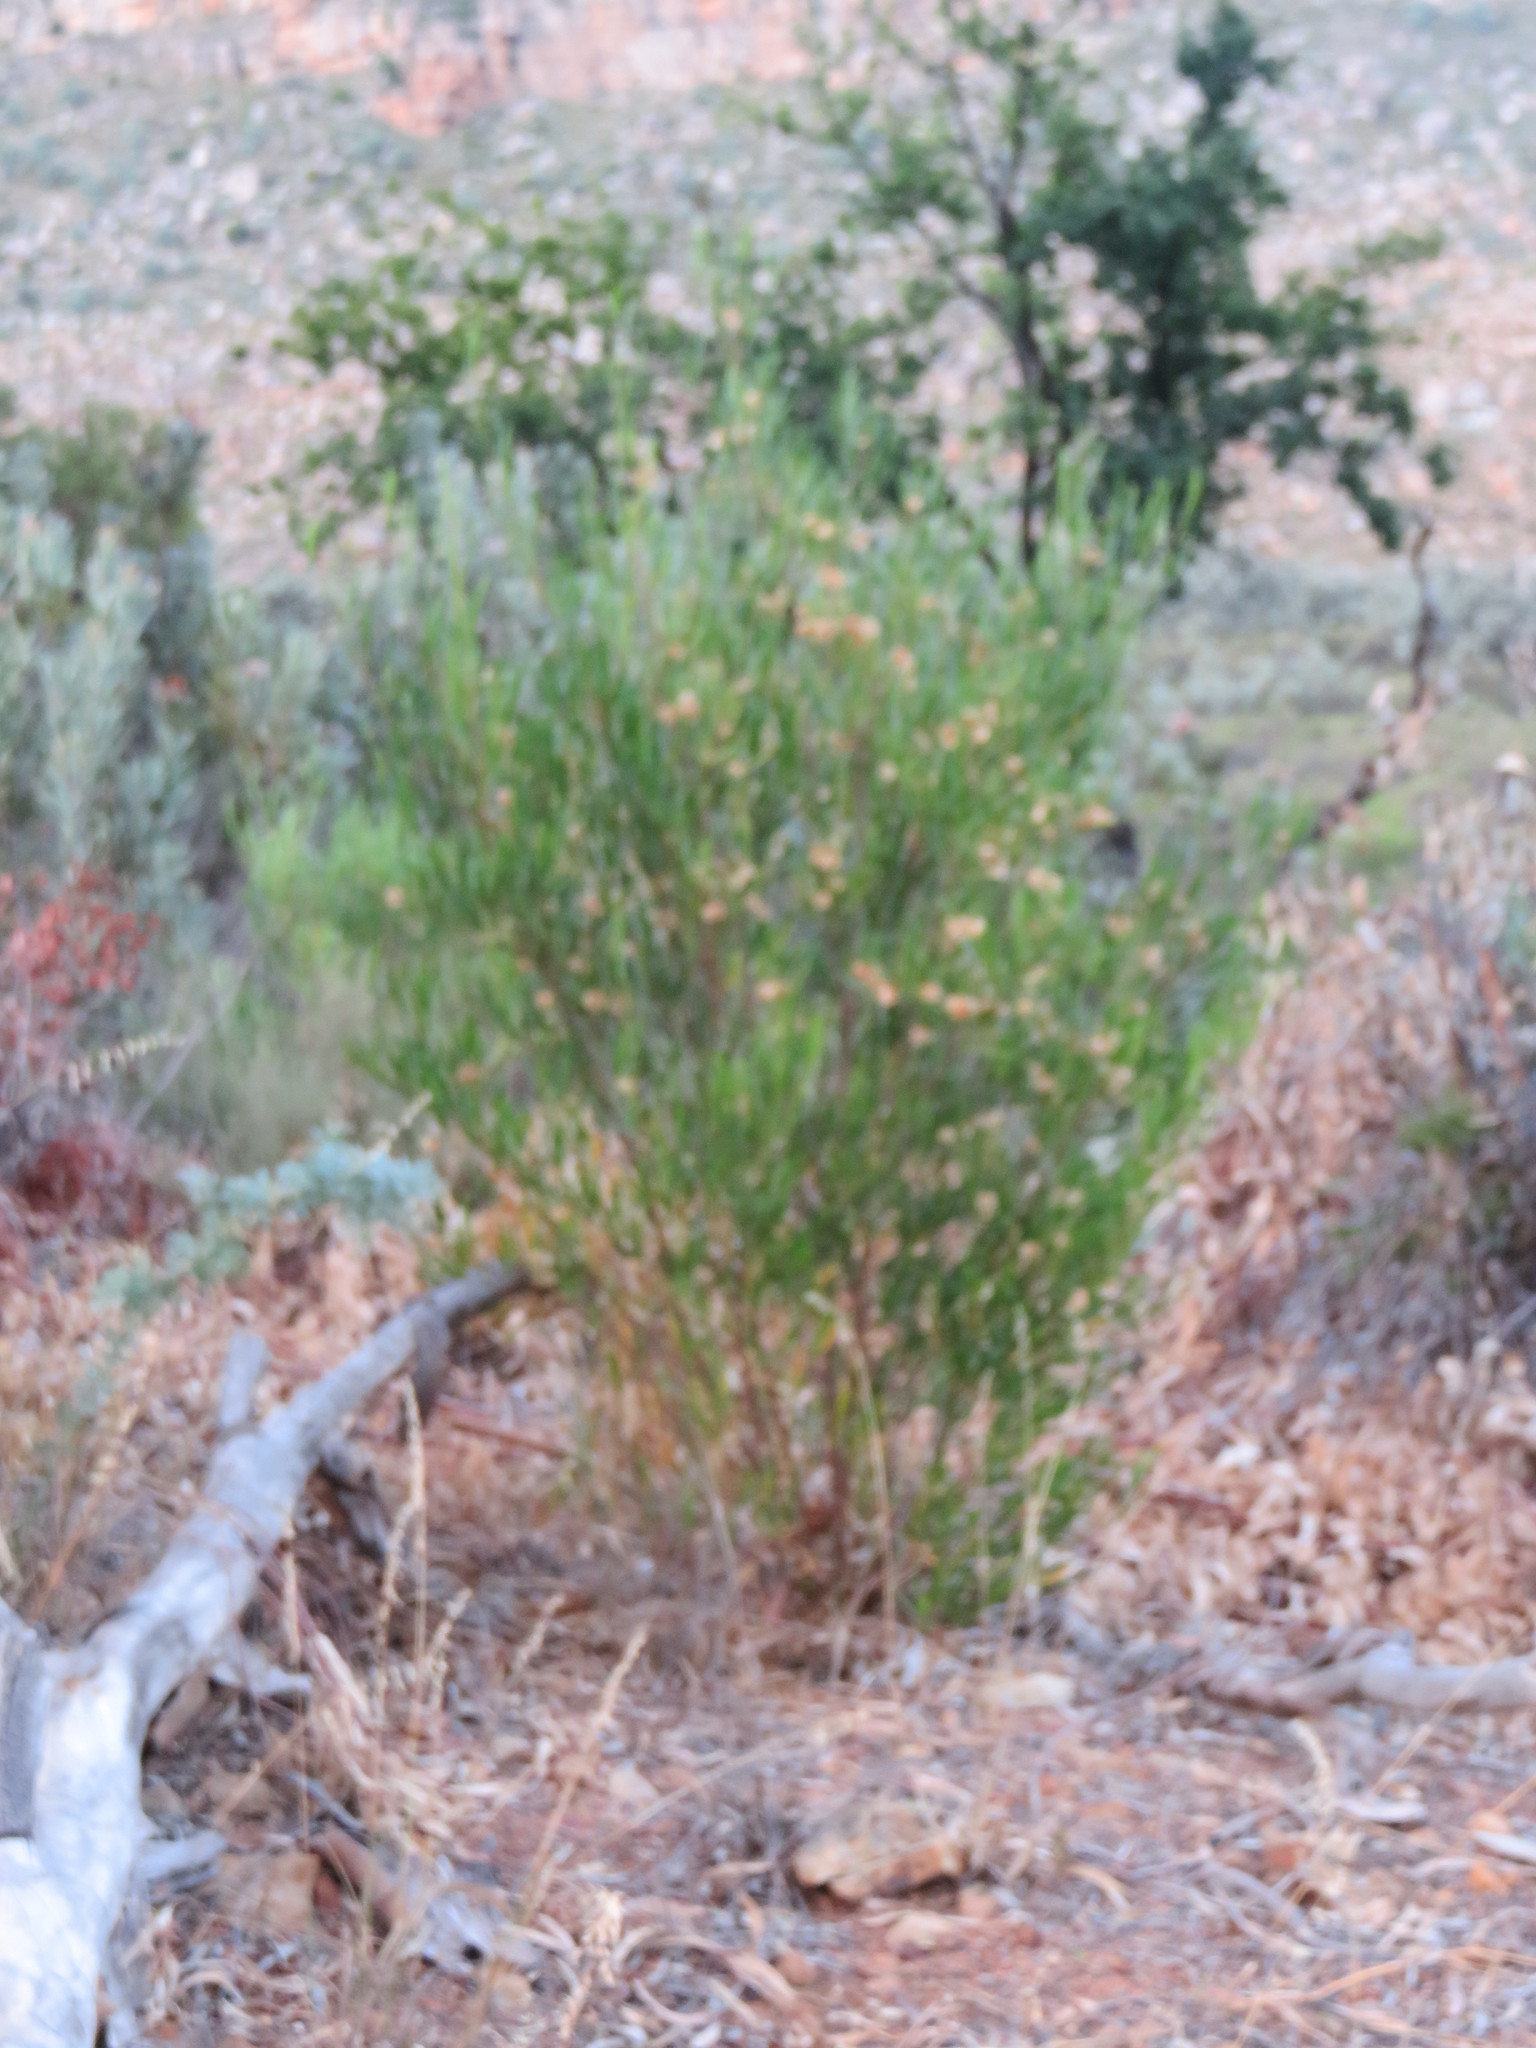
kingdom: Plantae
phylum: Tracheophyta
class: Magnoliopsida
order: Sapindales
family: Sapindaceae
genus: Dodonaea
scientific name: Dodonaea viscosa
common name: Hopbush
